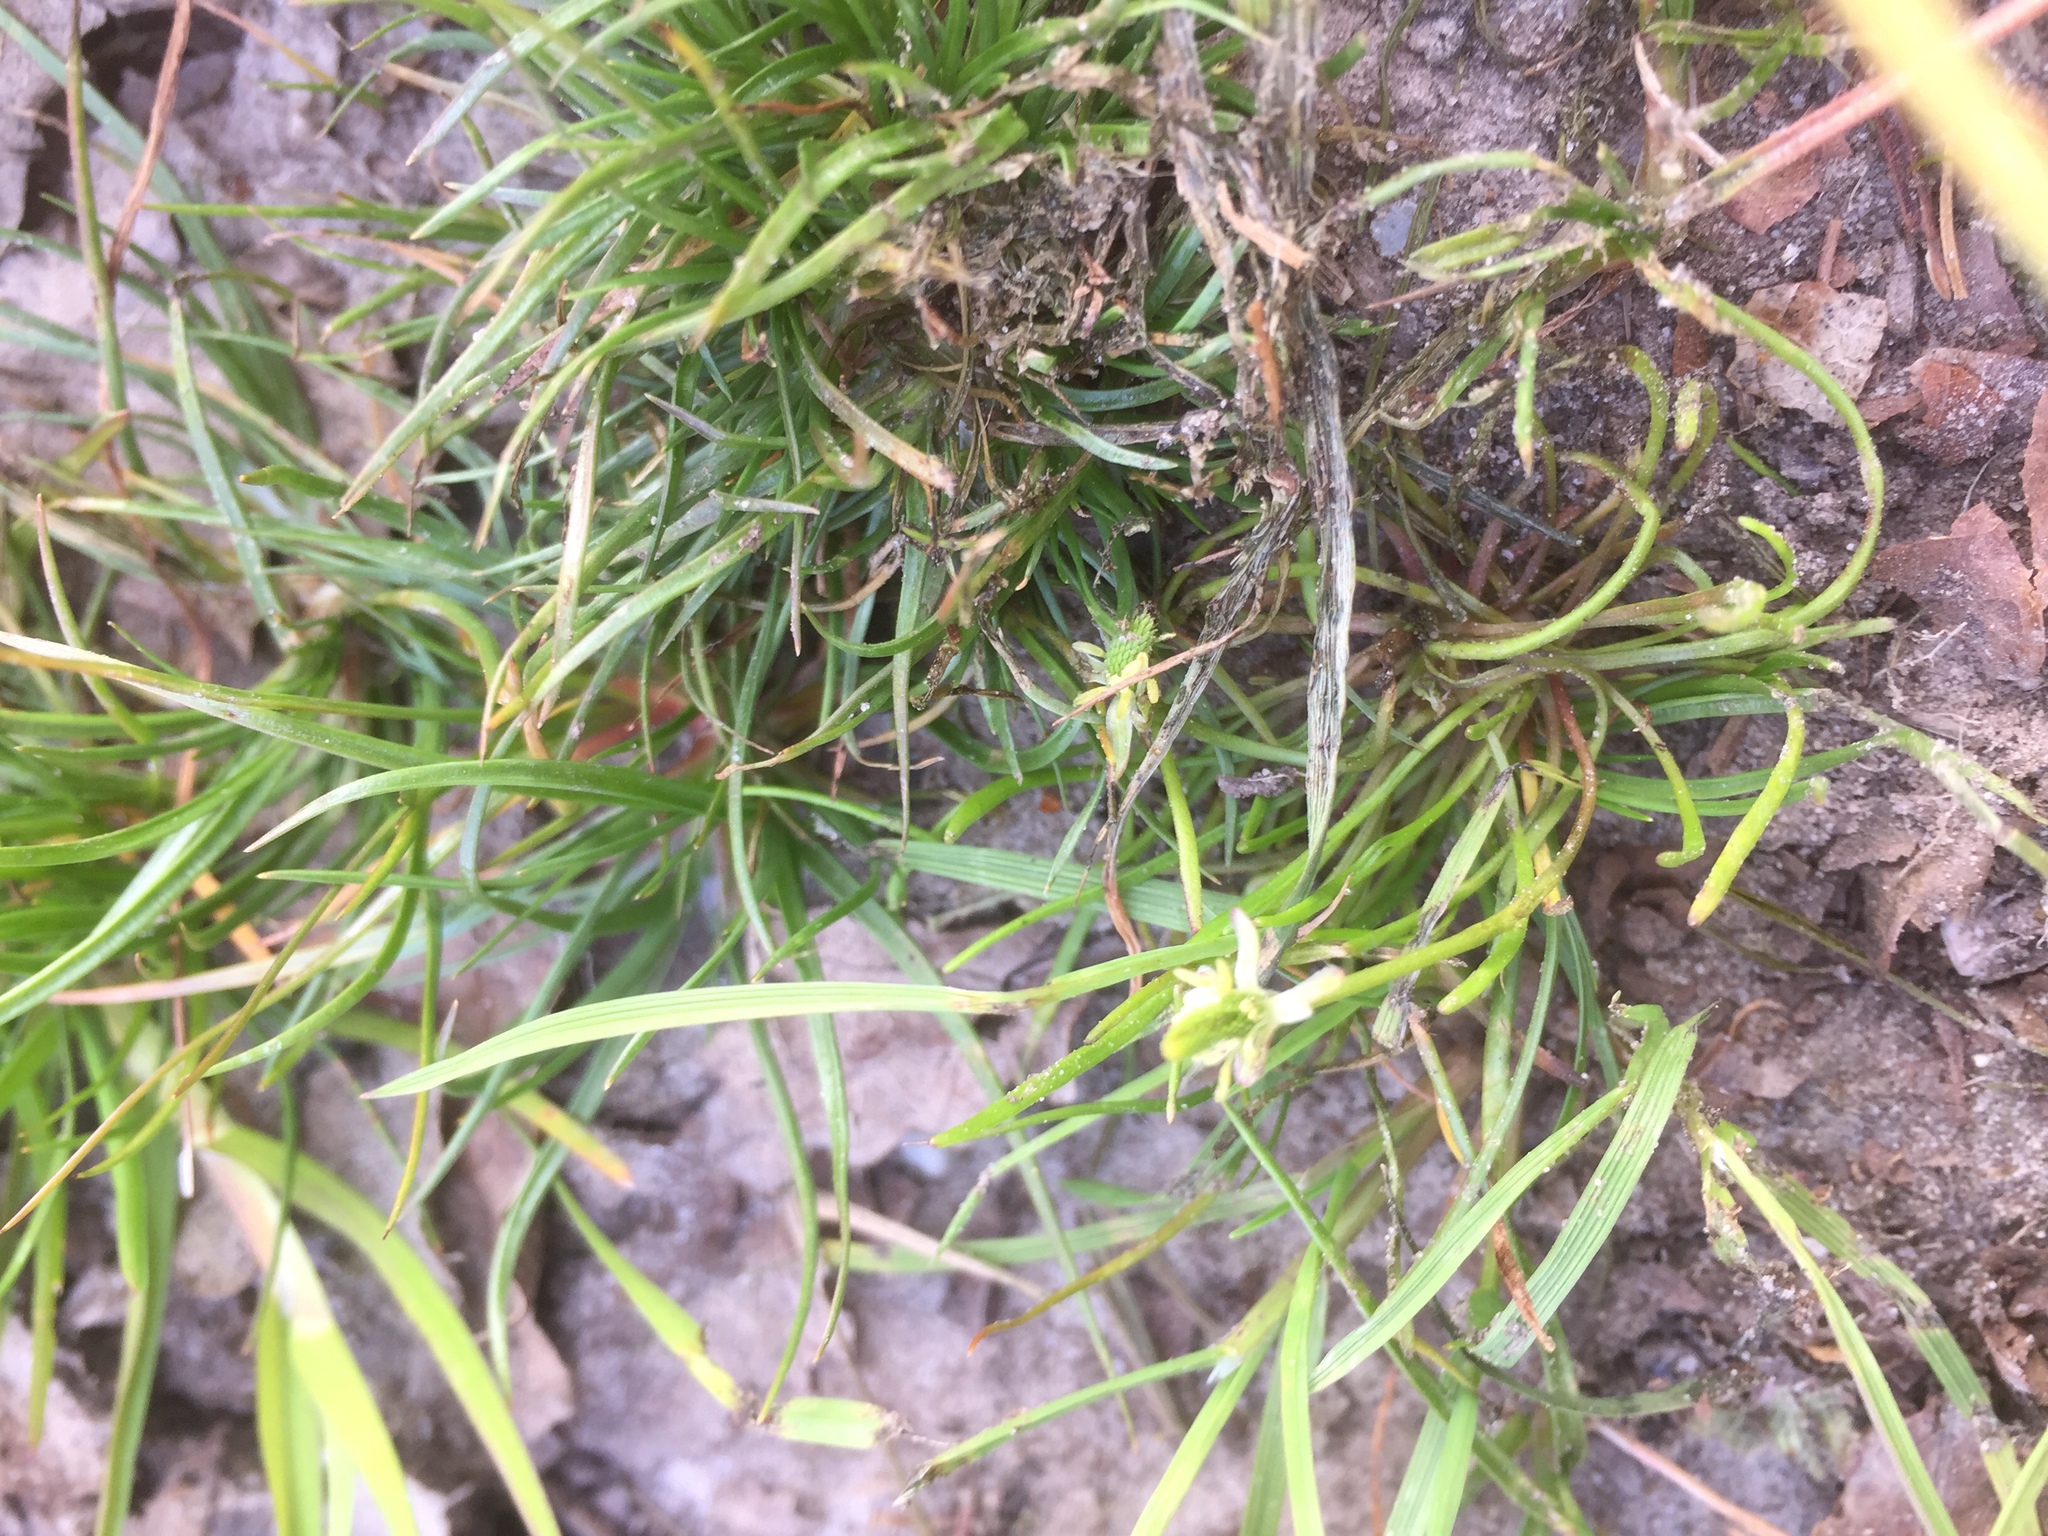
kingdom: Plantae
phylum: Tracheophyta
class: Magnoliopsida
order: Ranunculales
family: Ranunculaceae
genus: Myosurus
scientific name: Myosurus minimus
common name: Mousetail
